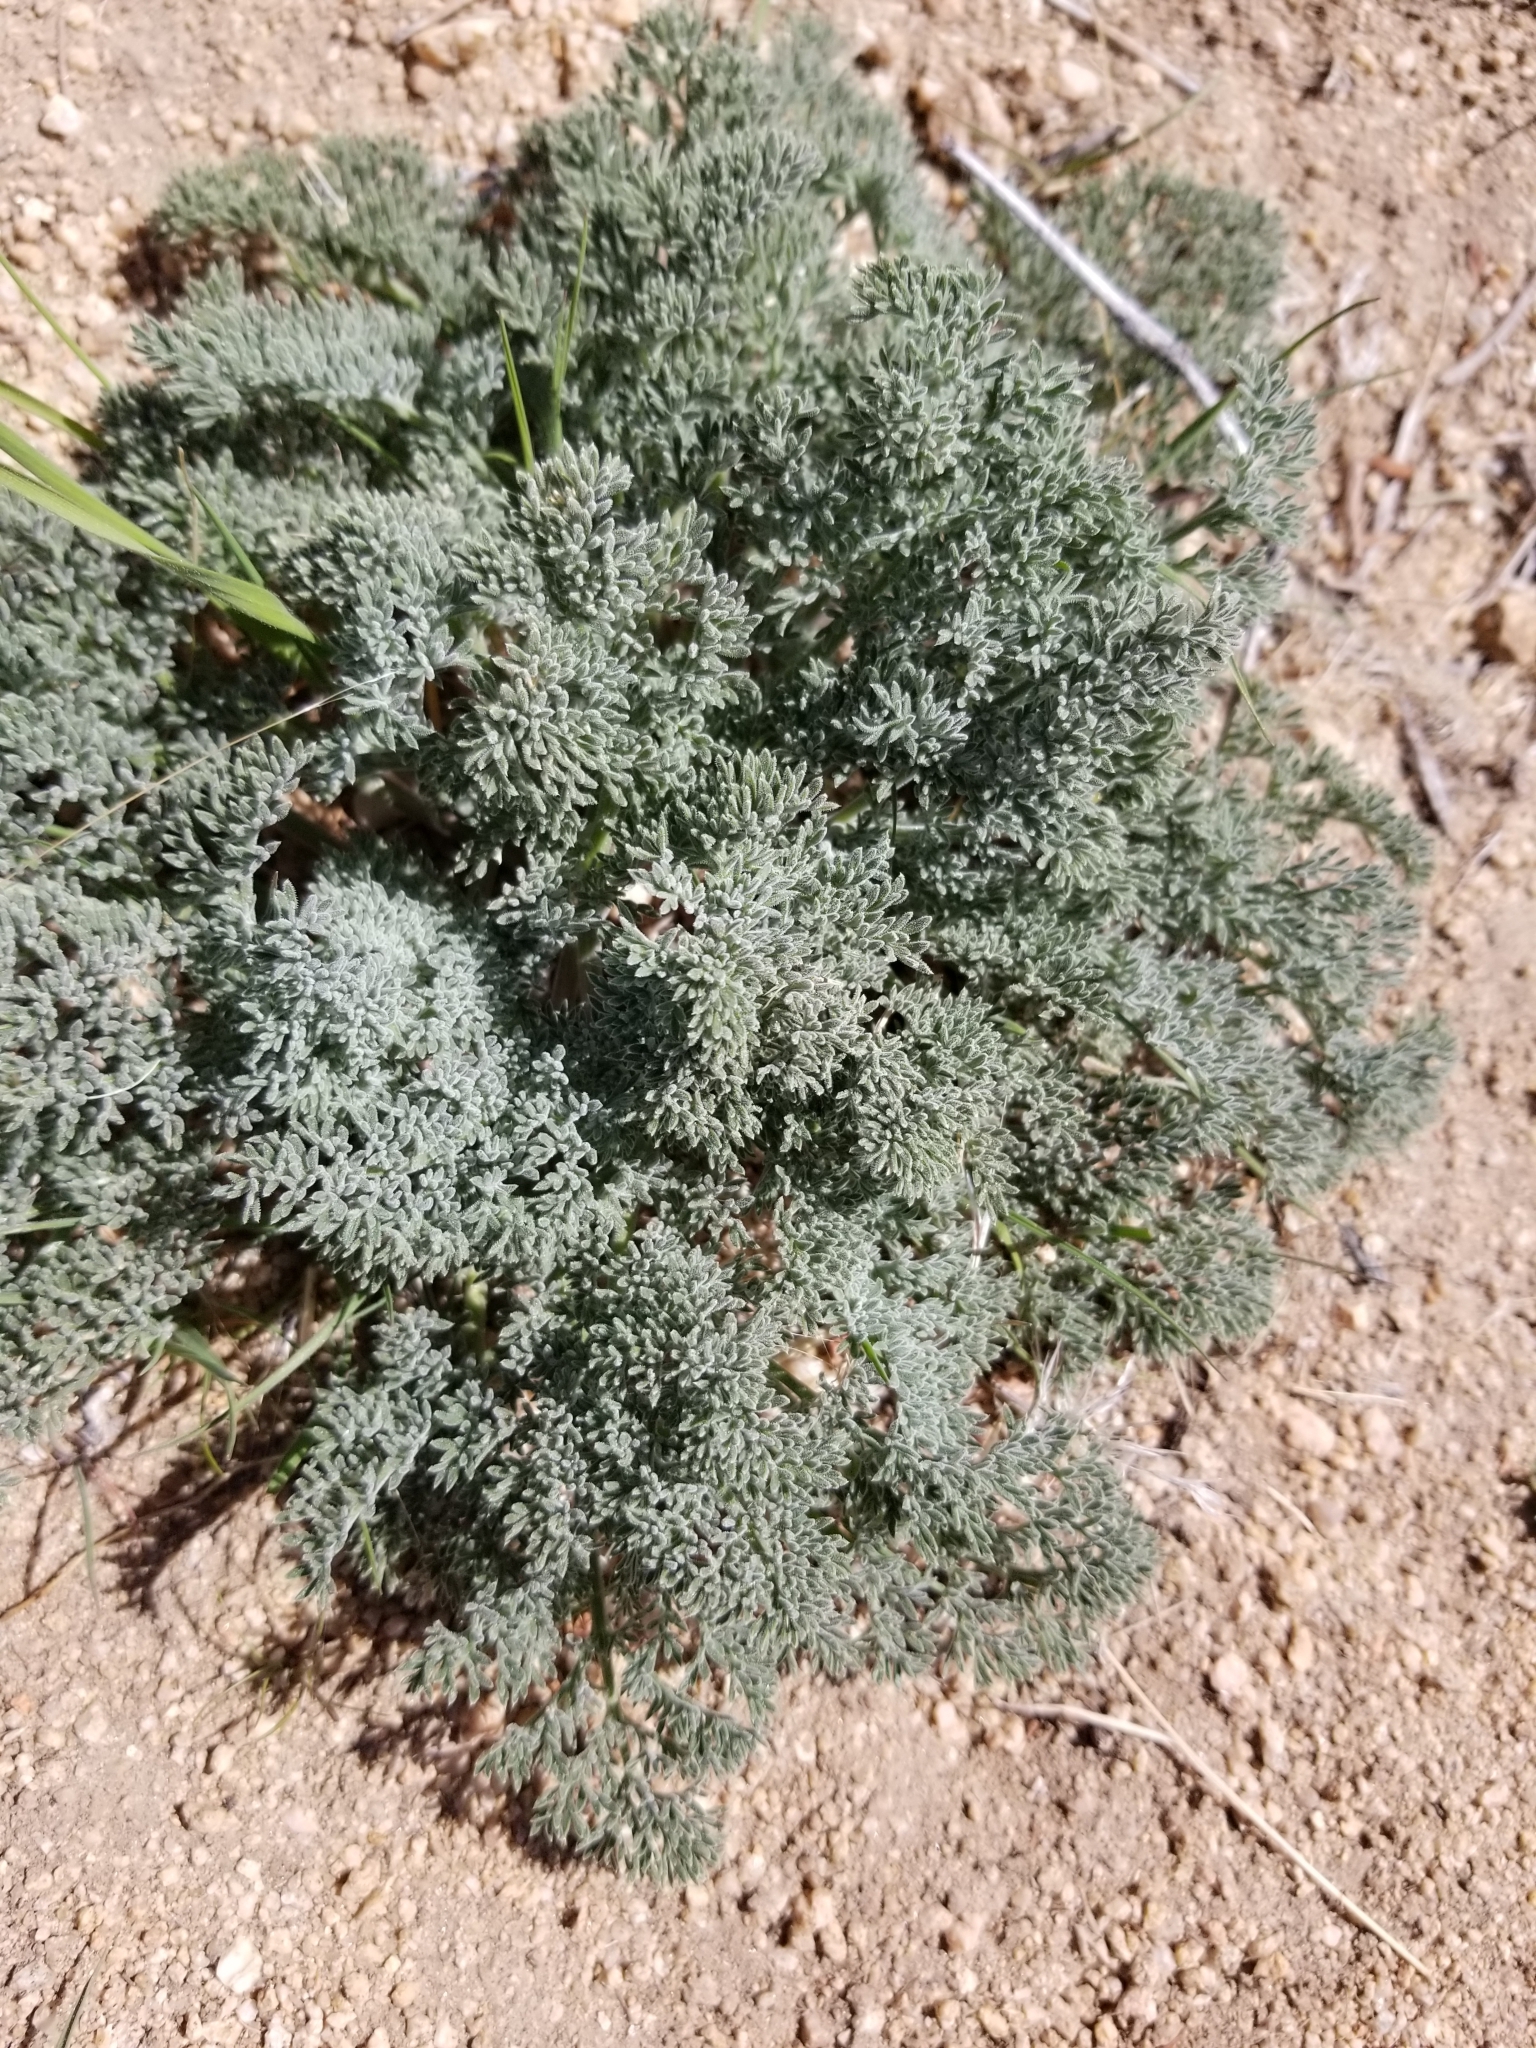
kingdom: Plantae
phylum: Tracheophyta
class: Magnoliopsida
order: Apiales
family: Apiaceae
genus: Lomatium
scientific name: Lomatium mohavense
